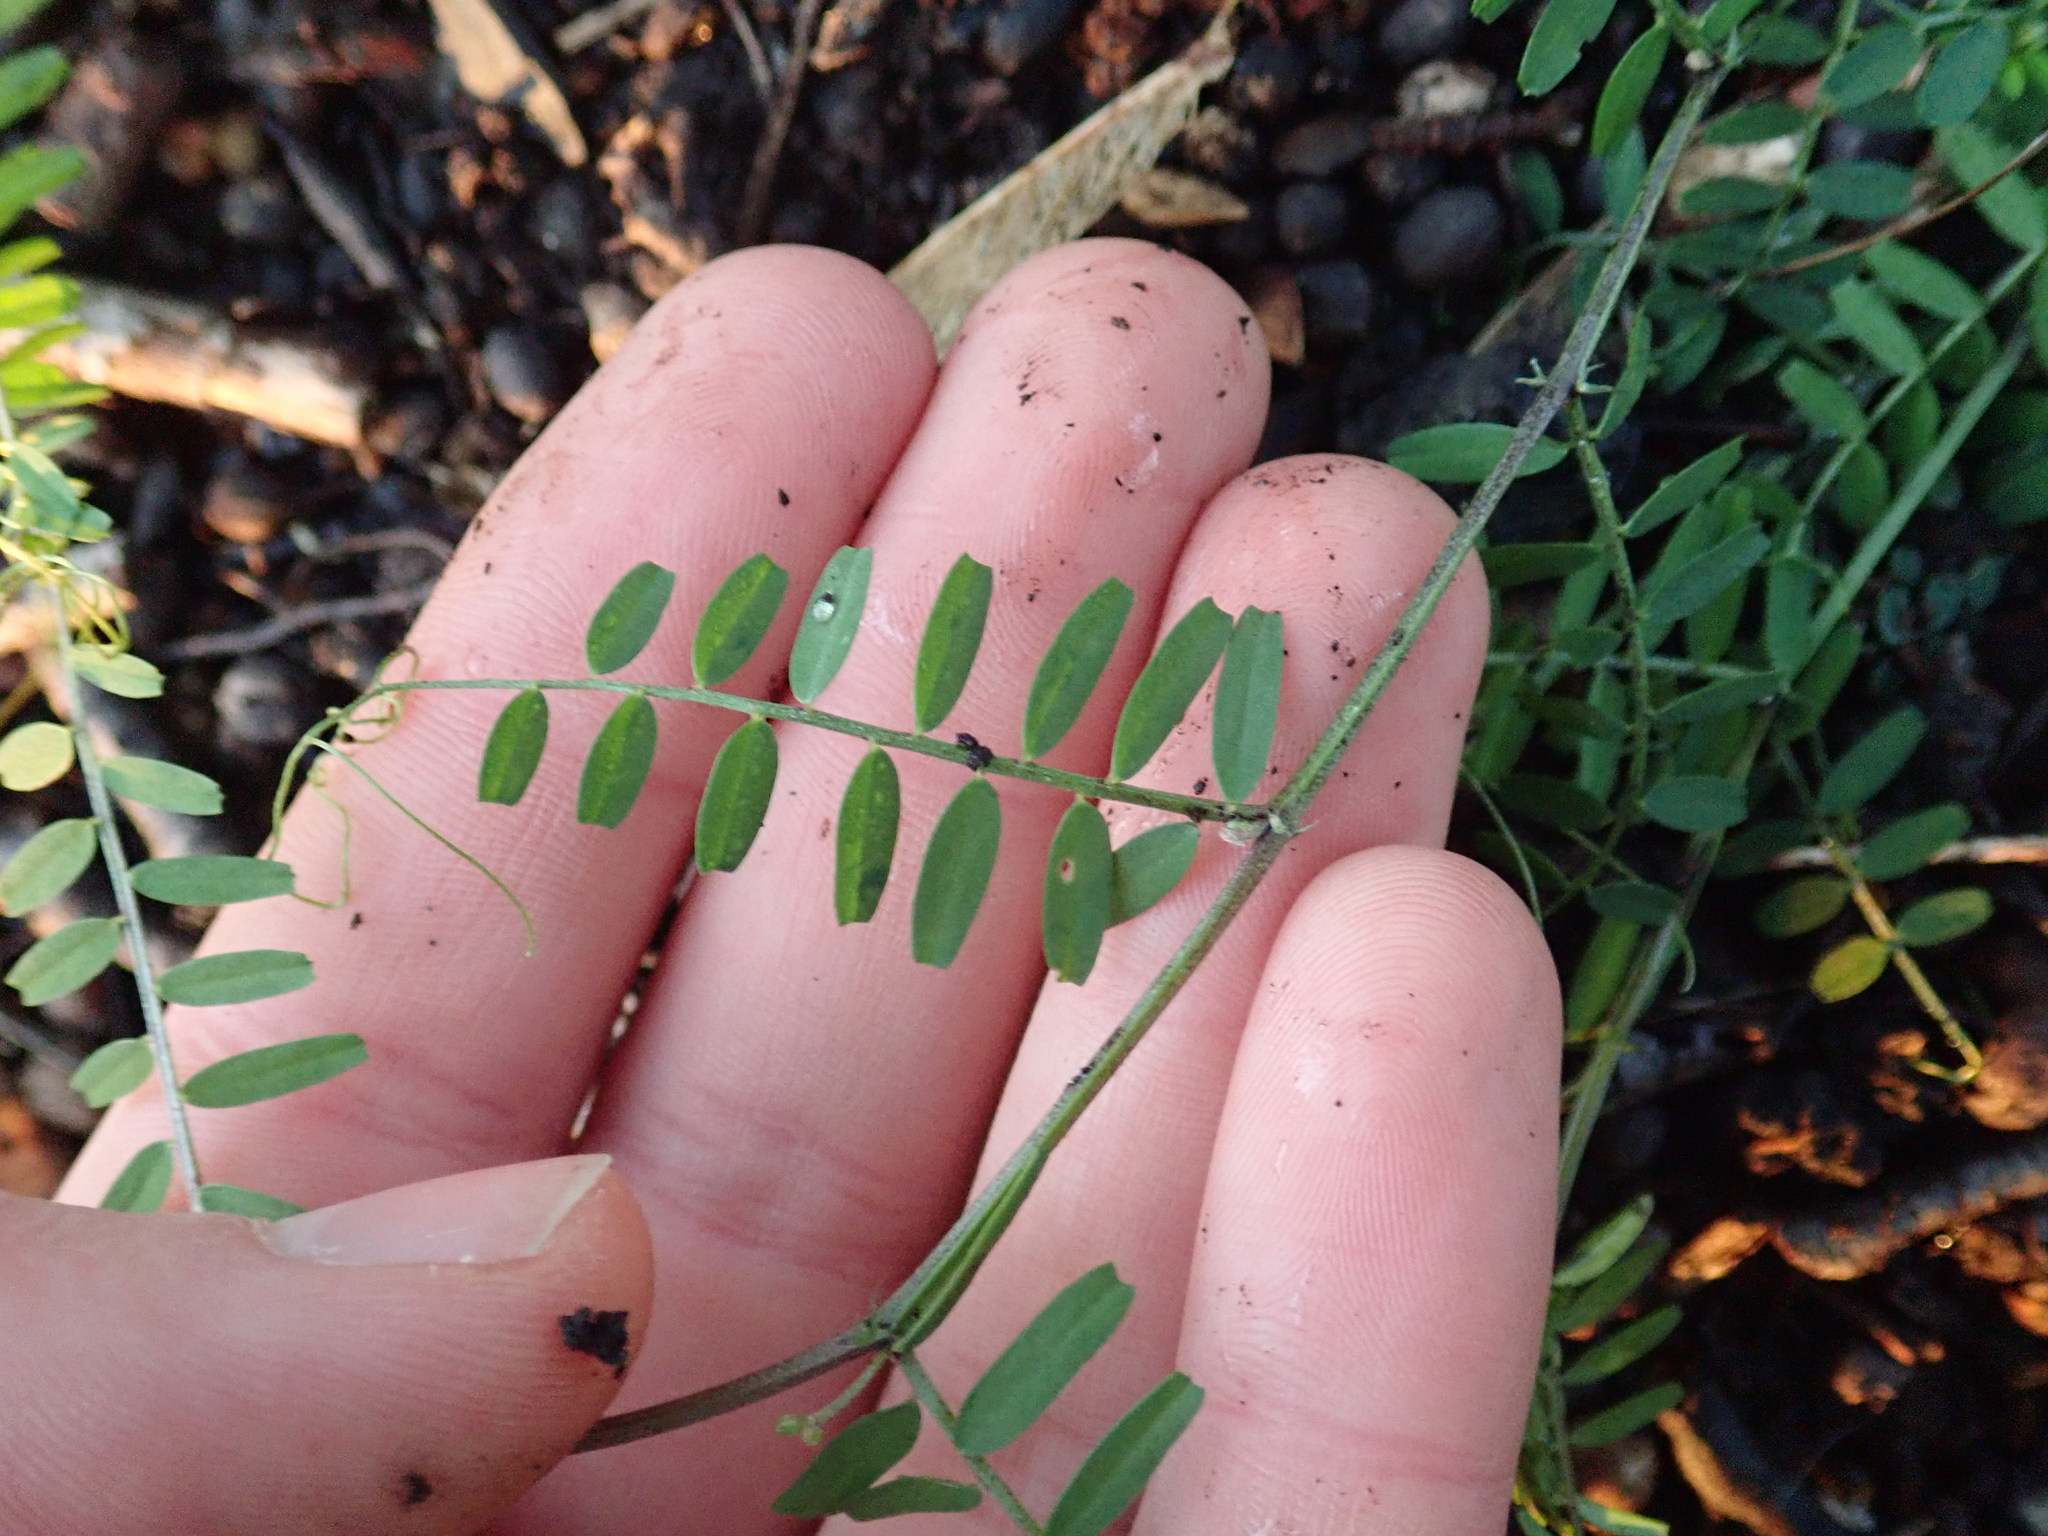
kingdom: Plantae
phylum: Tracheophyta
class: Magnoliopsida
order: Fabales
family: Fabaceae
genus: Vicia
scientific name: Vicia hirsuta
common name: Tiny vetch
